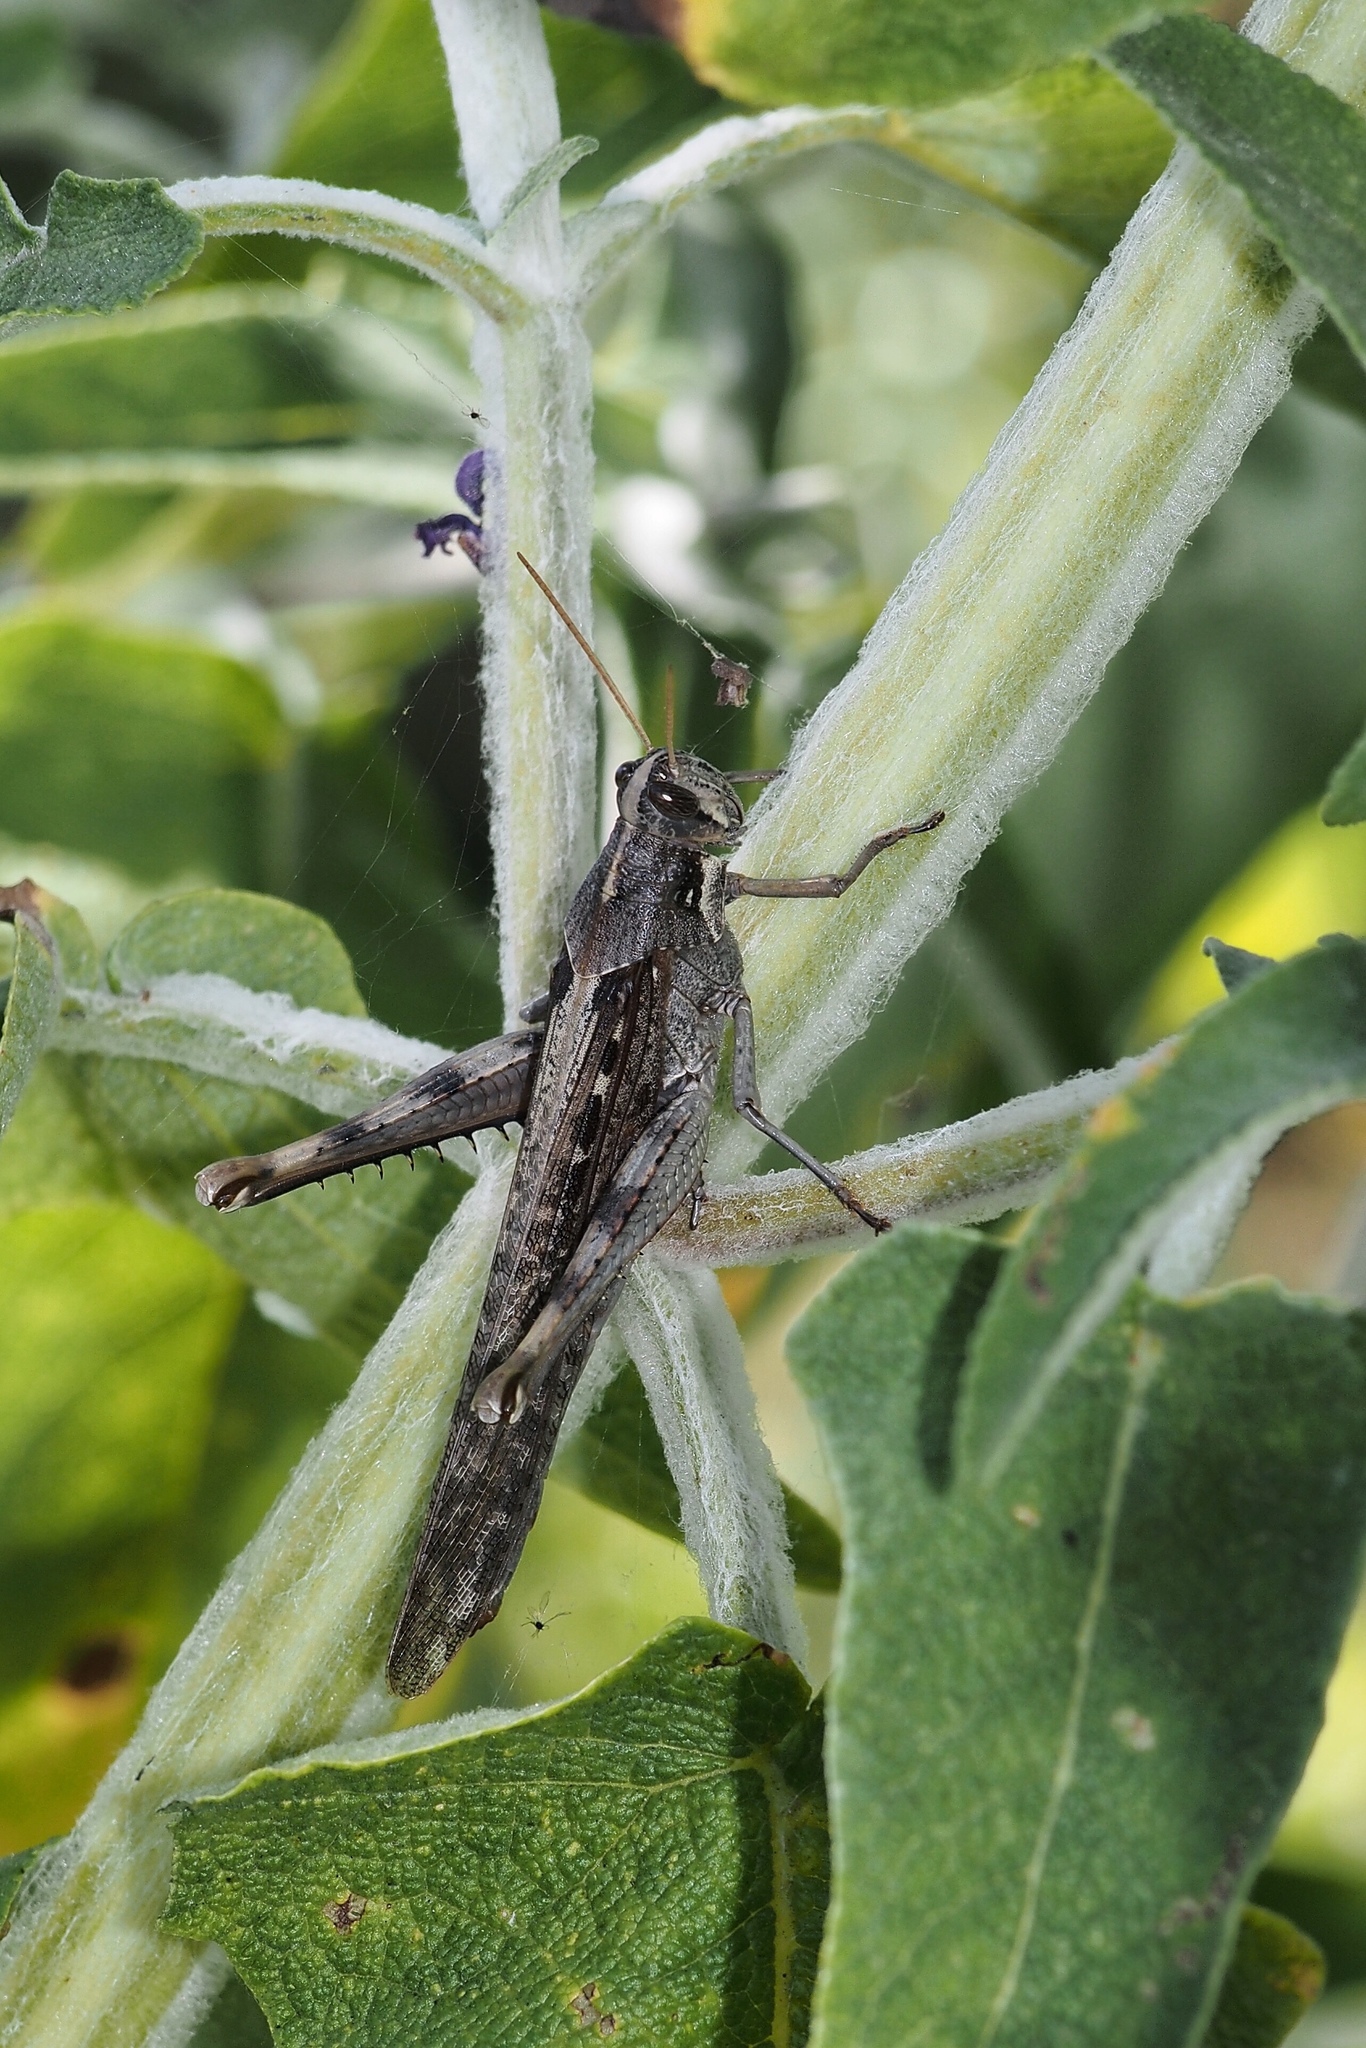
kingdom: Animalia
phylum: Arthropoda
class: Insecta
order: Orthoptera
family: Acrididae
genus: Schistocerca
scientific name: Schistocerca nitens
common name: Vagrant grasshopper
